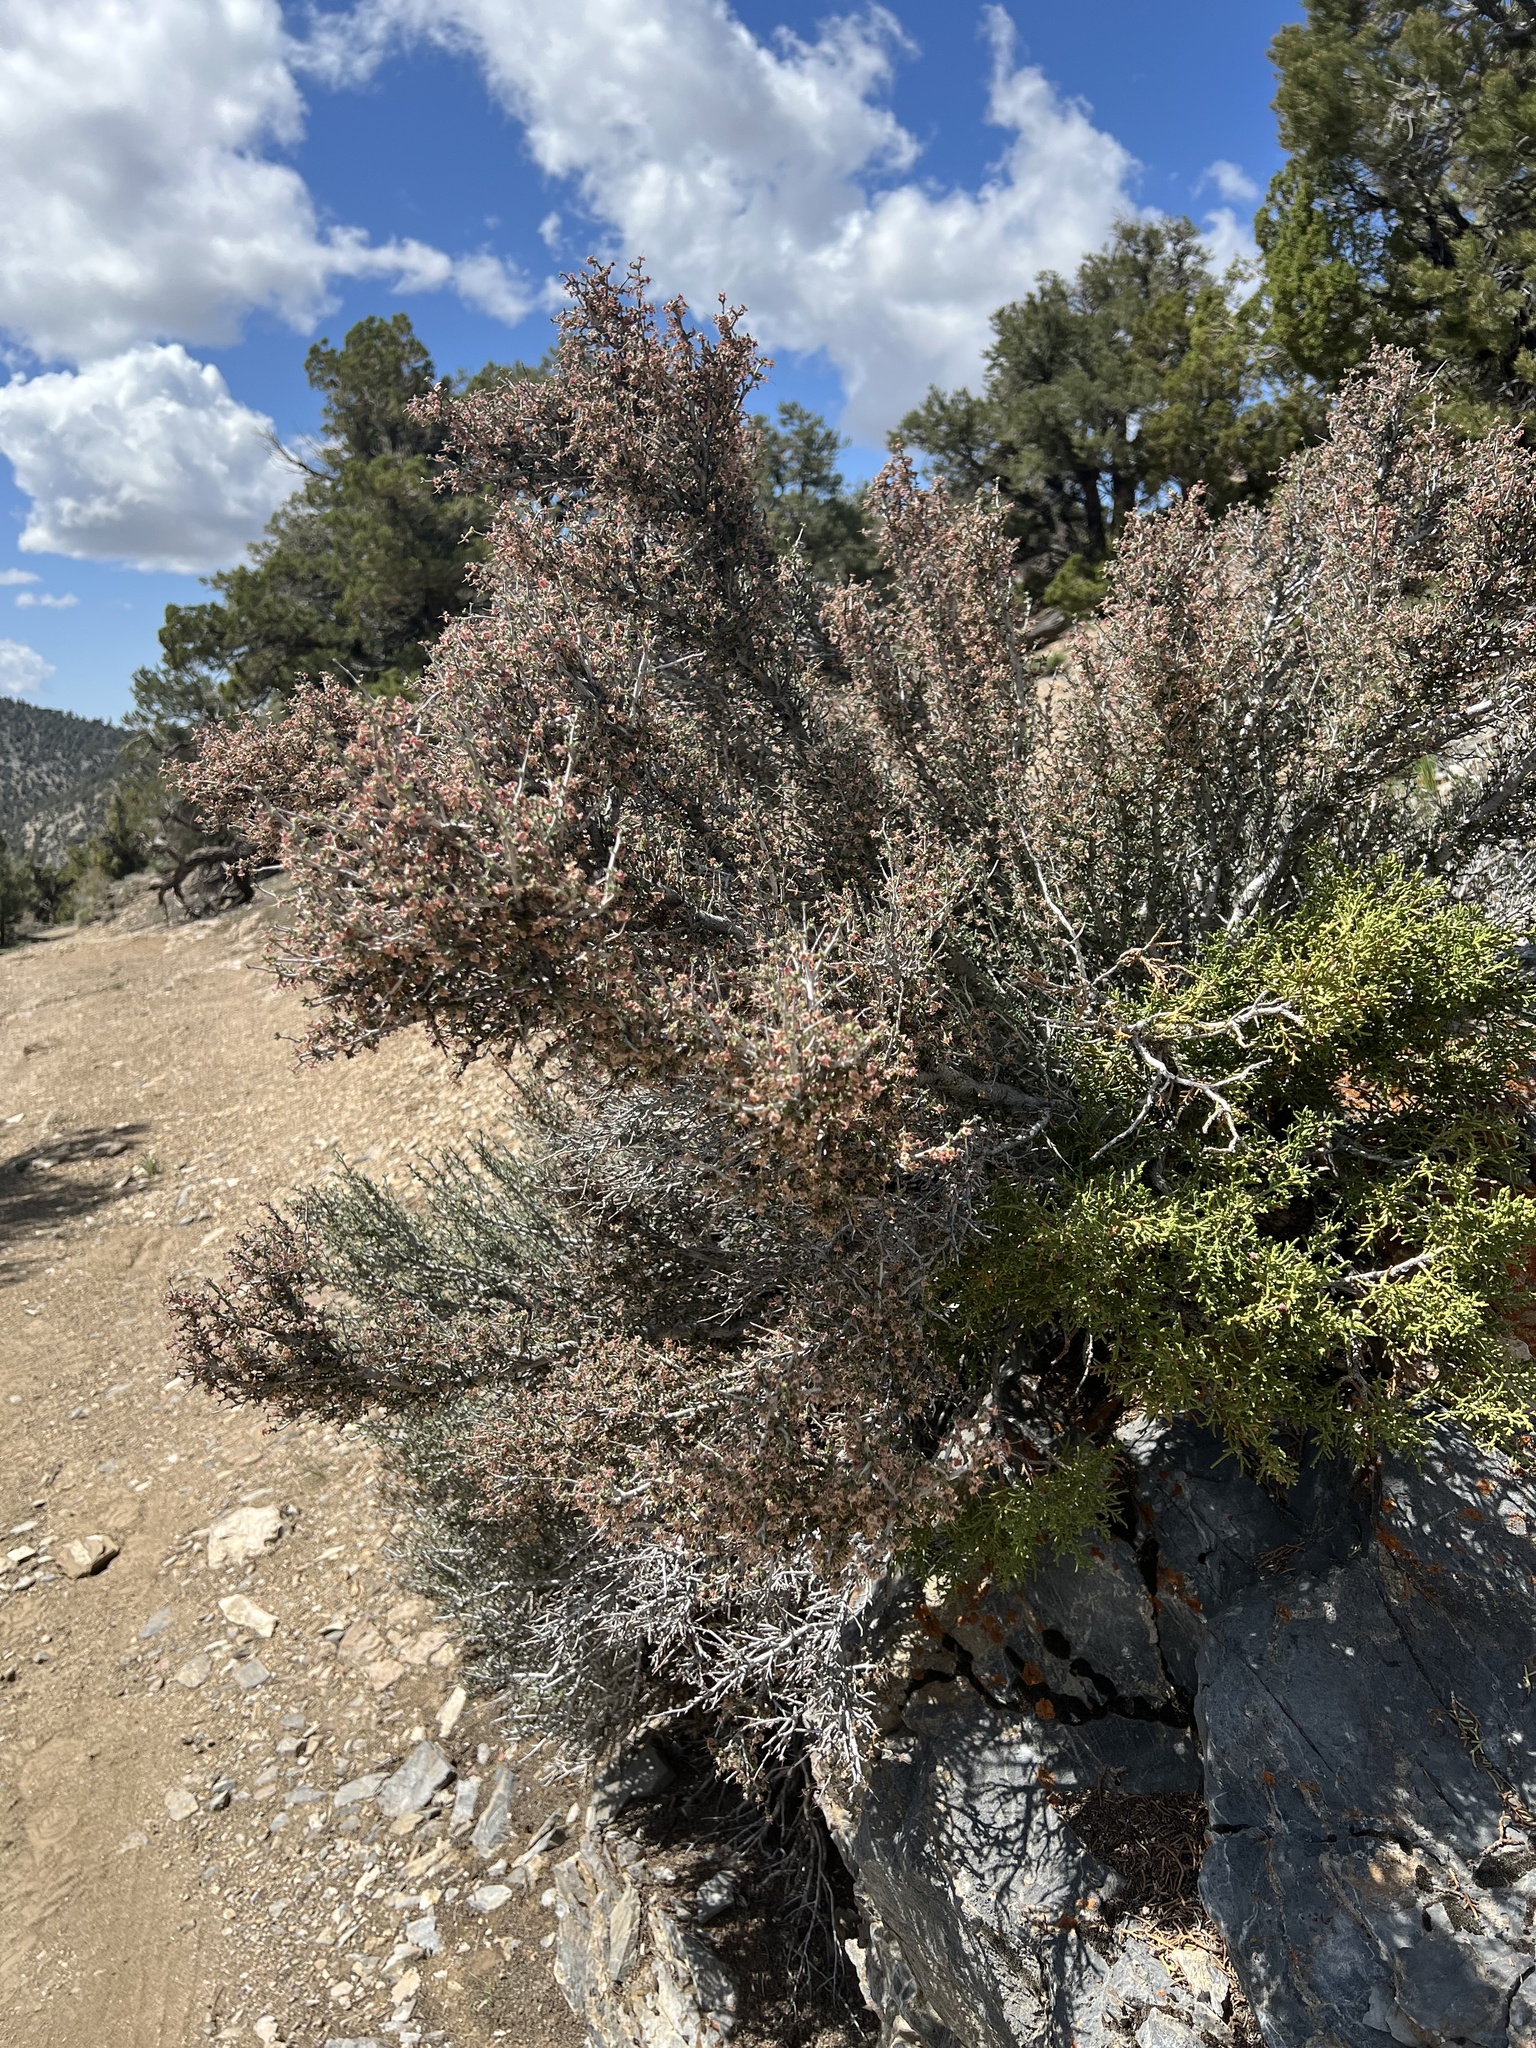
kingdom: Plantae
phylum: Tracheophyta
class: Magnoliopsida
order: Rosales
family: Rosaceae
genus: Cercocarpus
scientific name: Cercocarpus intricatus
